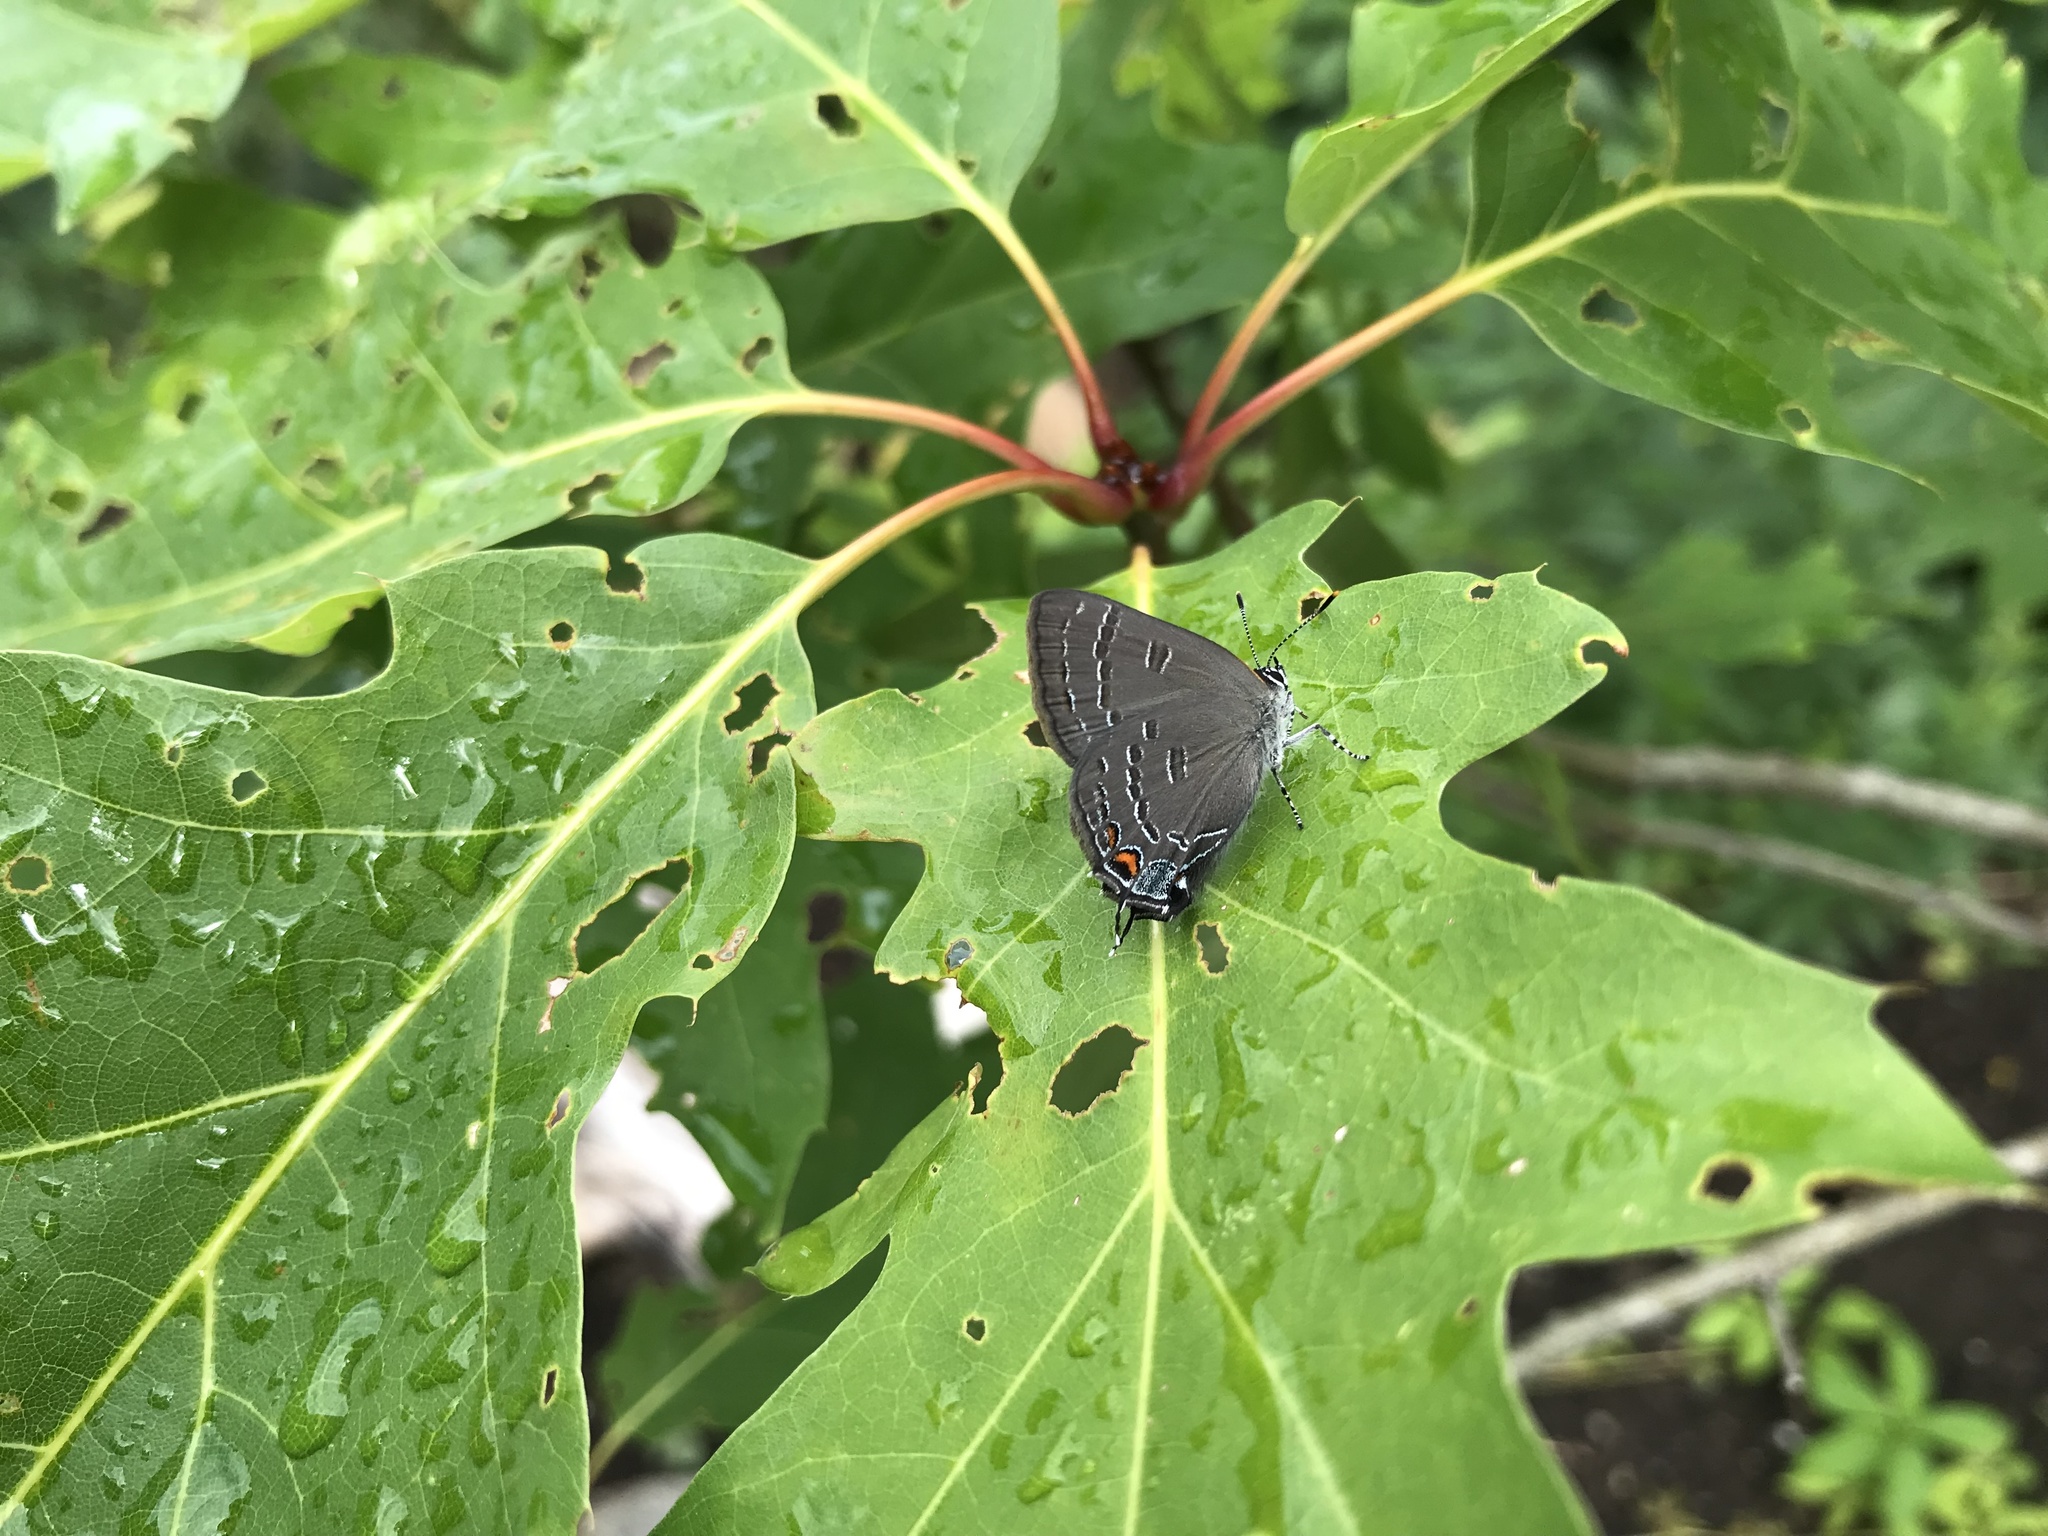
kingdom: Animalia
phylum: Arthropoda
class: Insecta
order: Lepidoptera
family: Lycaenidae
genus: Satyrium
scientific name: Satyrium calanus
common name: Banded hairstreak
